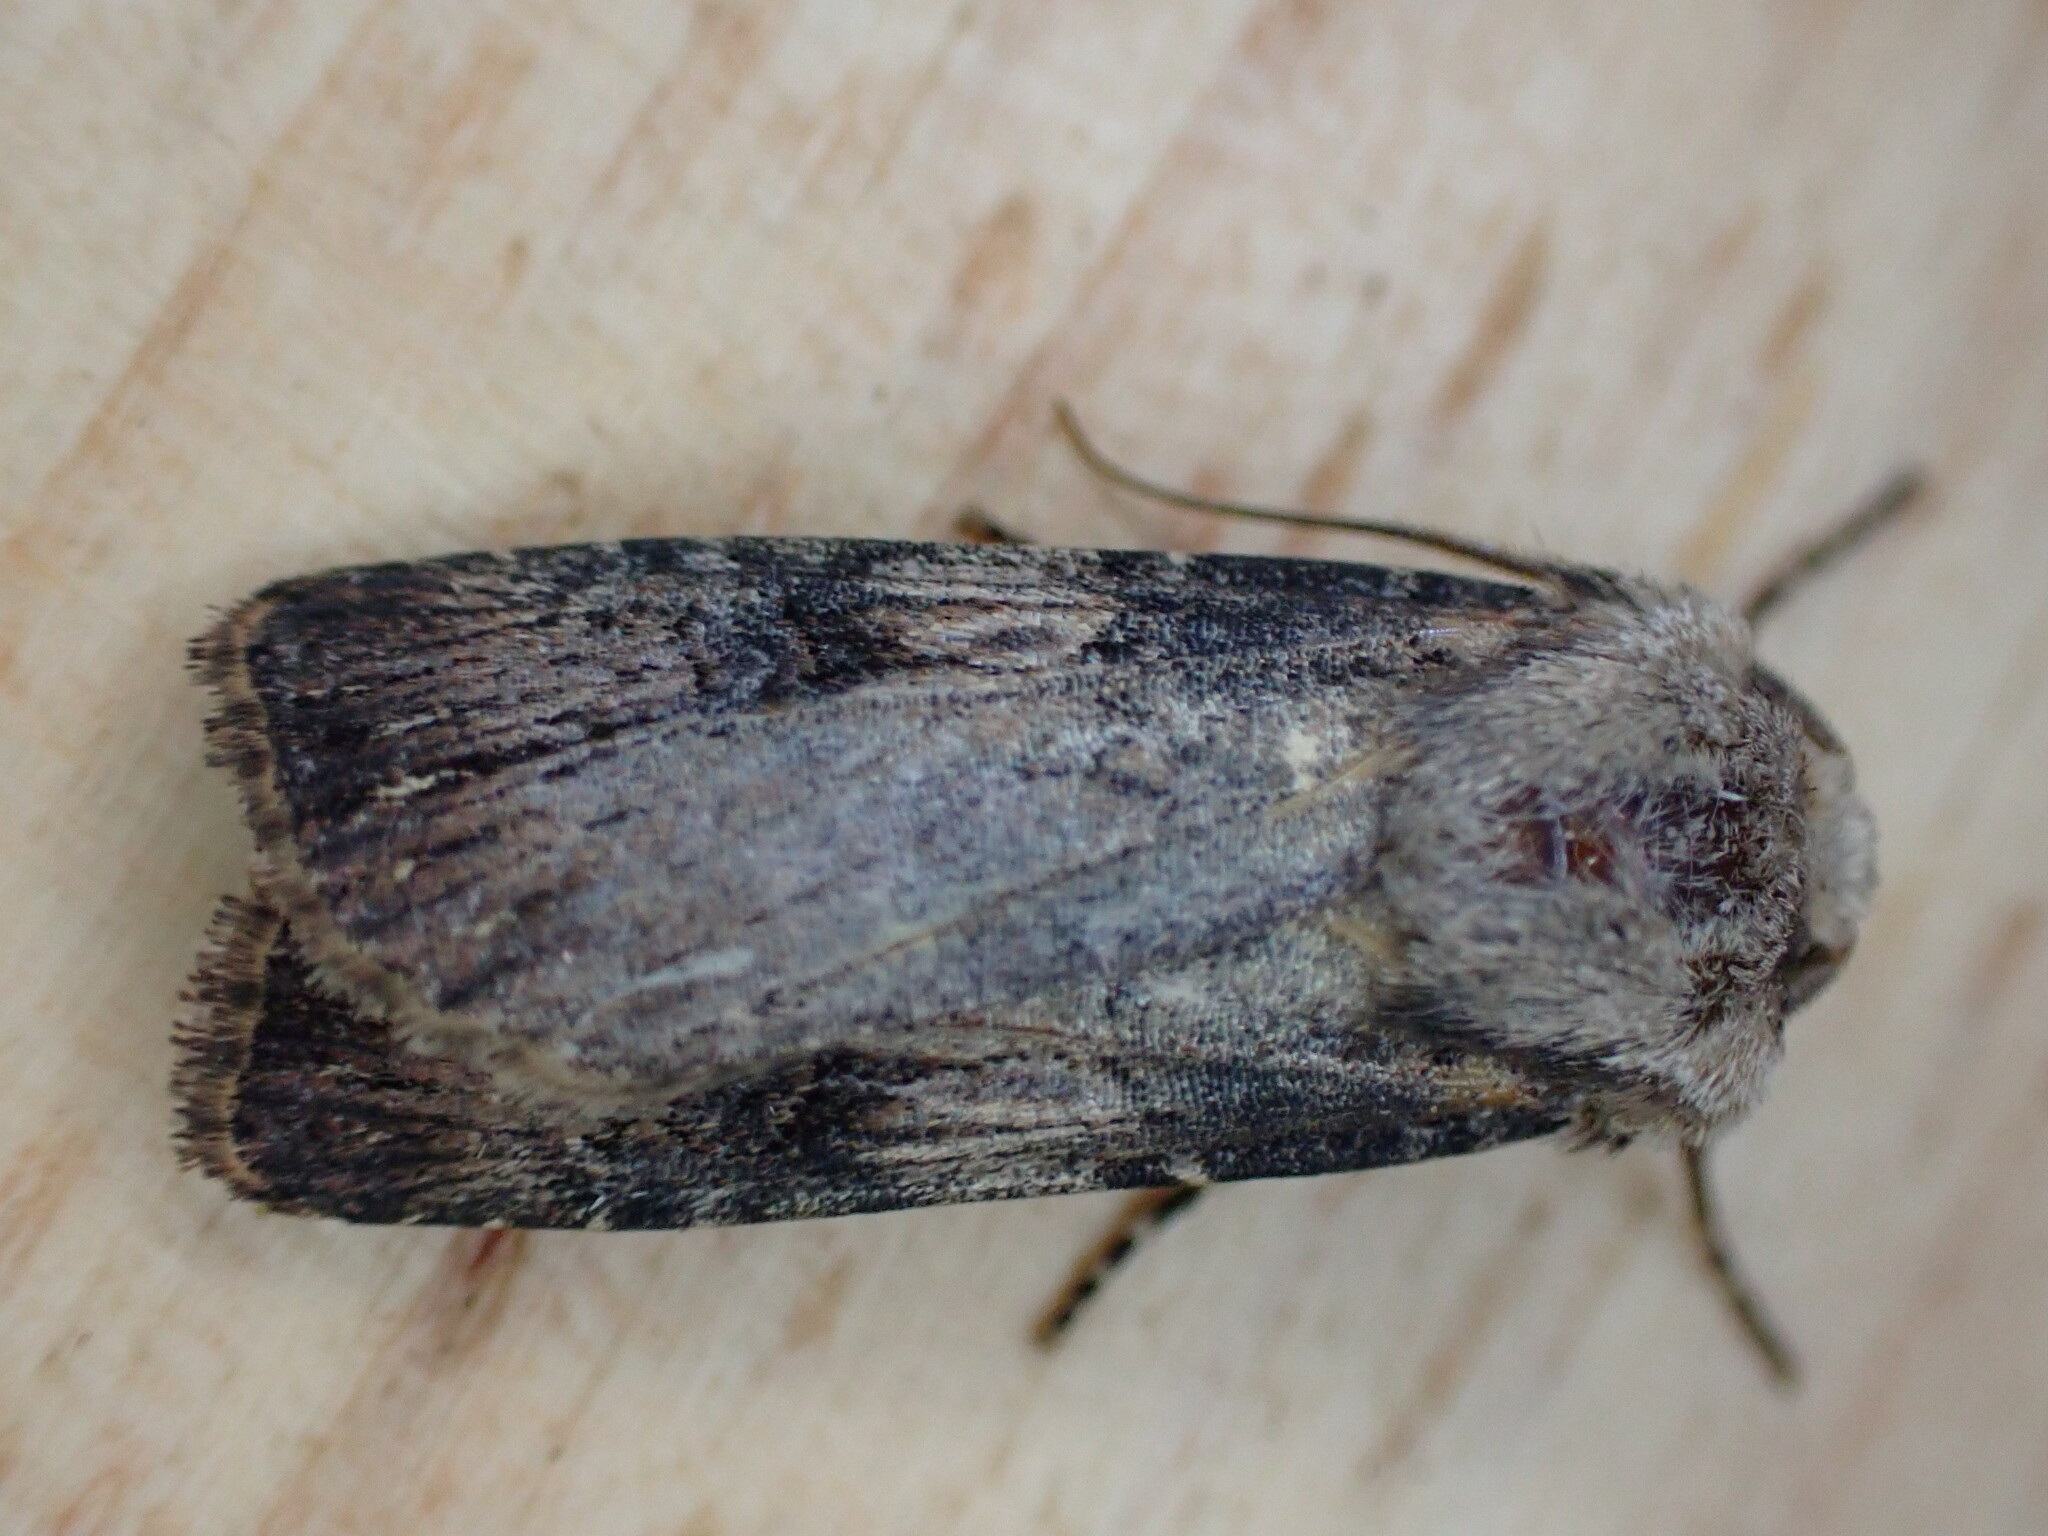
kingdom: Animalia
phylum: Arthropoda
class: Insecta
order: Lepidoptera
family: Noctuidae
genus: Agrotis
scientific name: Agrotis puta
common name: Shuttle-shaped dart
